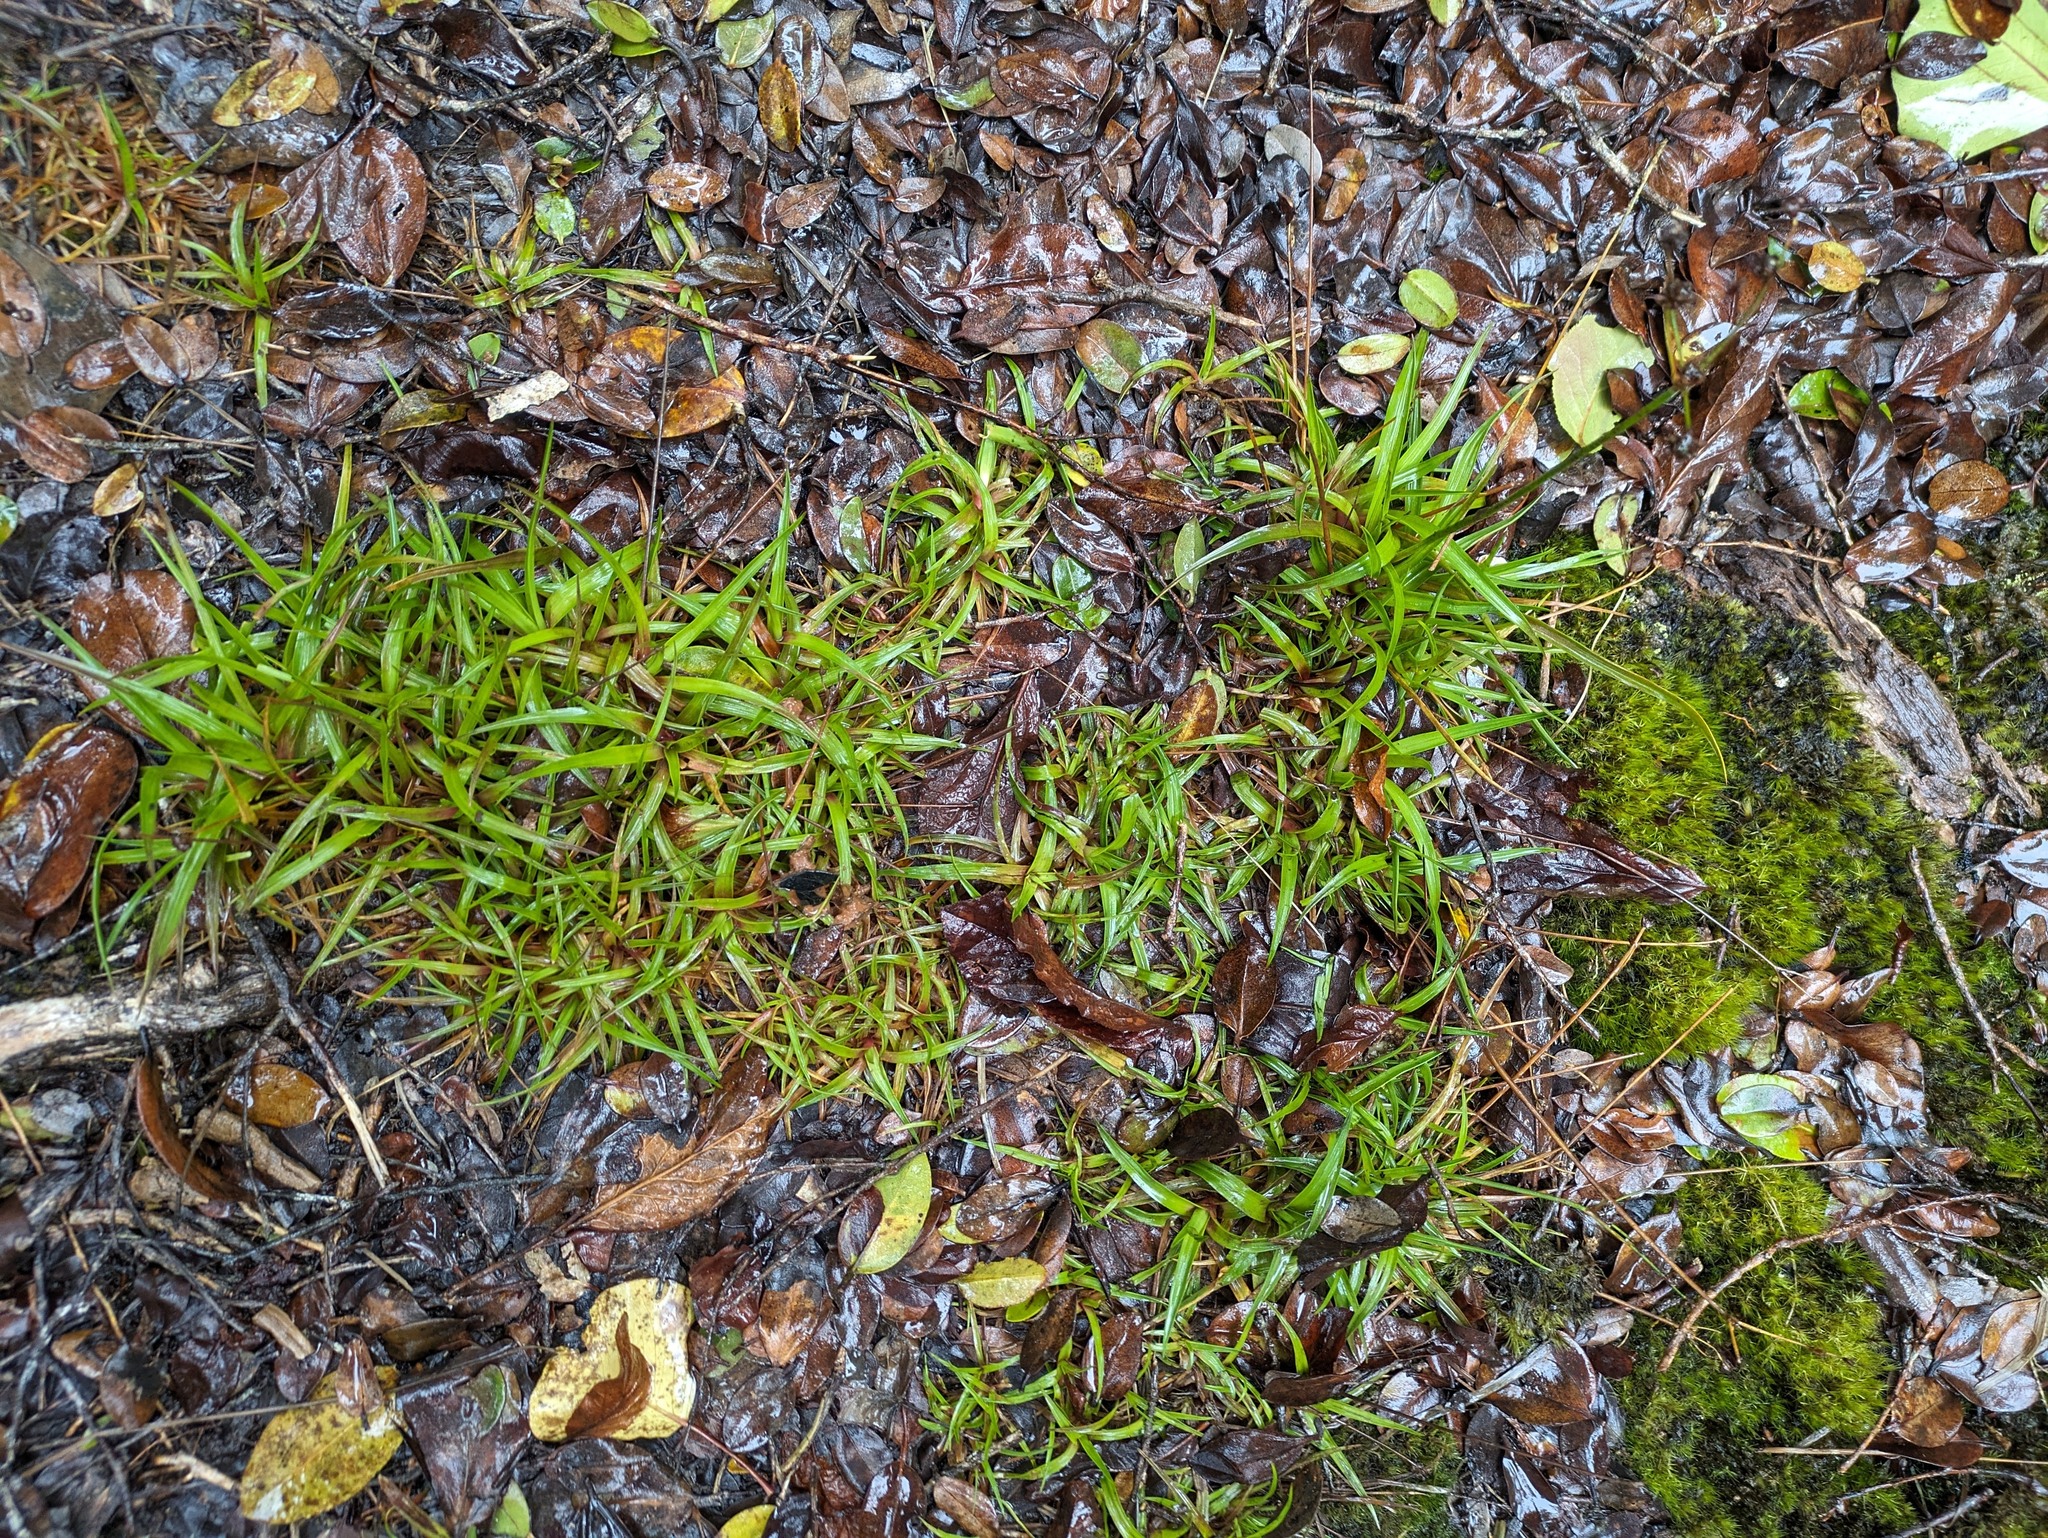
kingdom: Plantae
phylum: Tracheophyta
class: Liliopsida
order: Poales
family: Juncaceae
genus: Juncus
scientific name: Juncus planifolius
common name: Broadleaf rush
